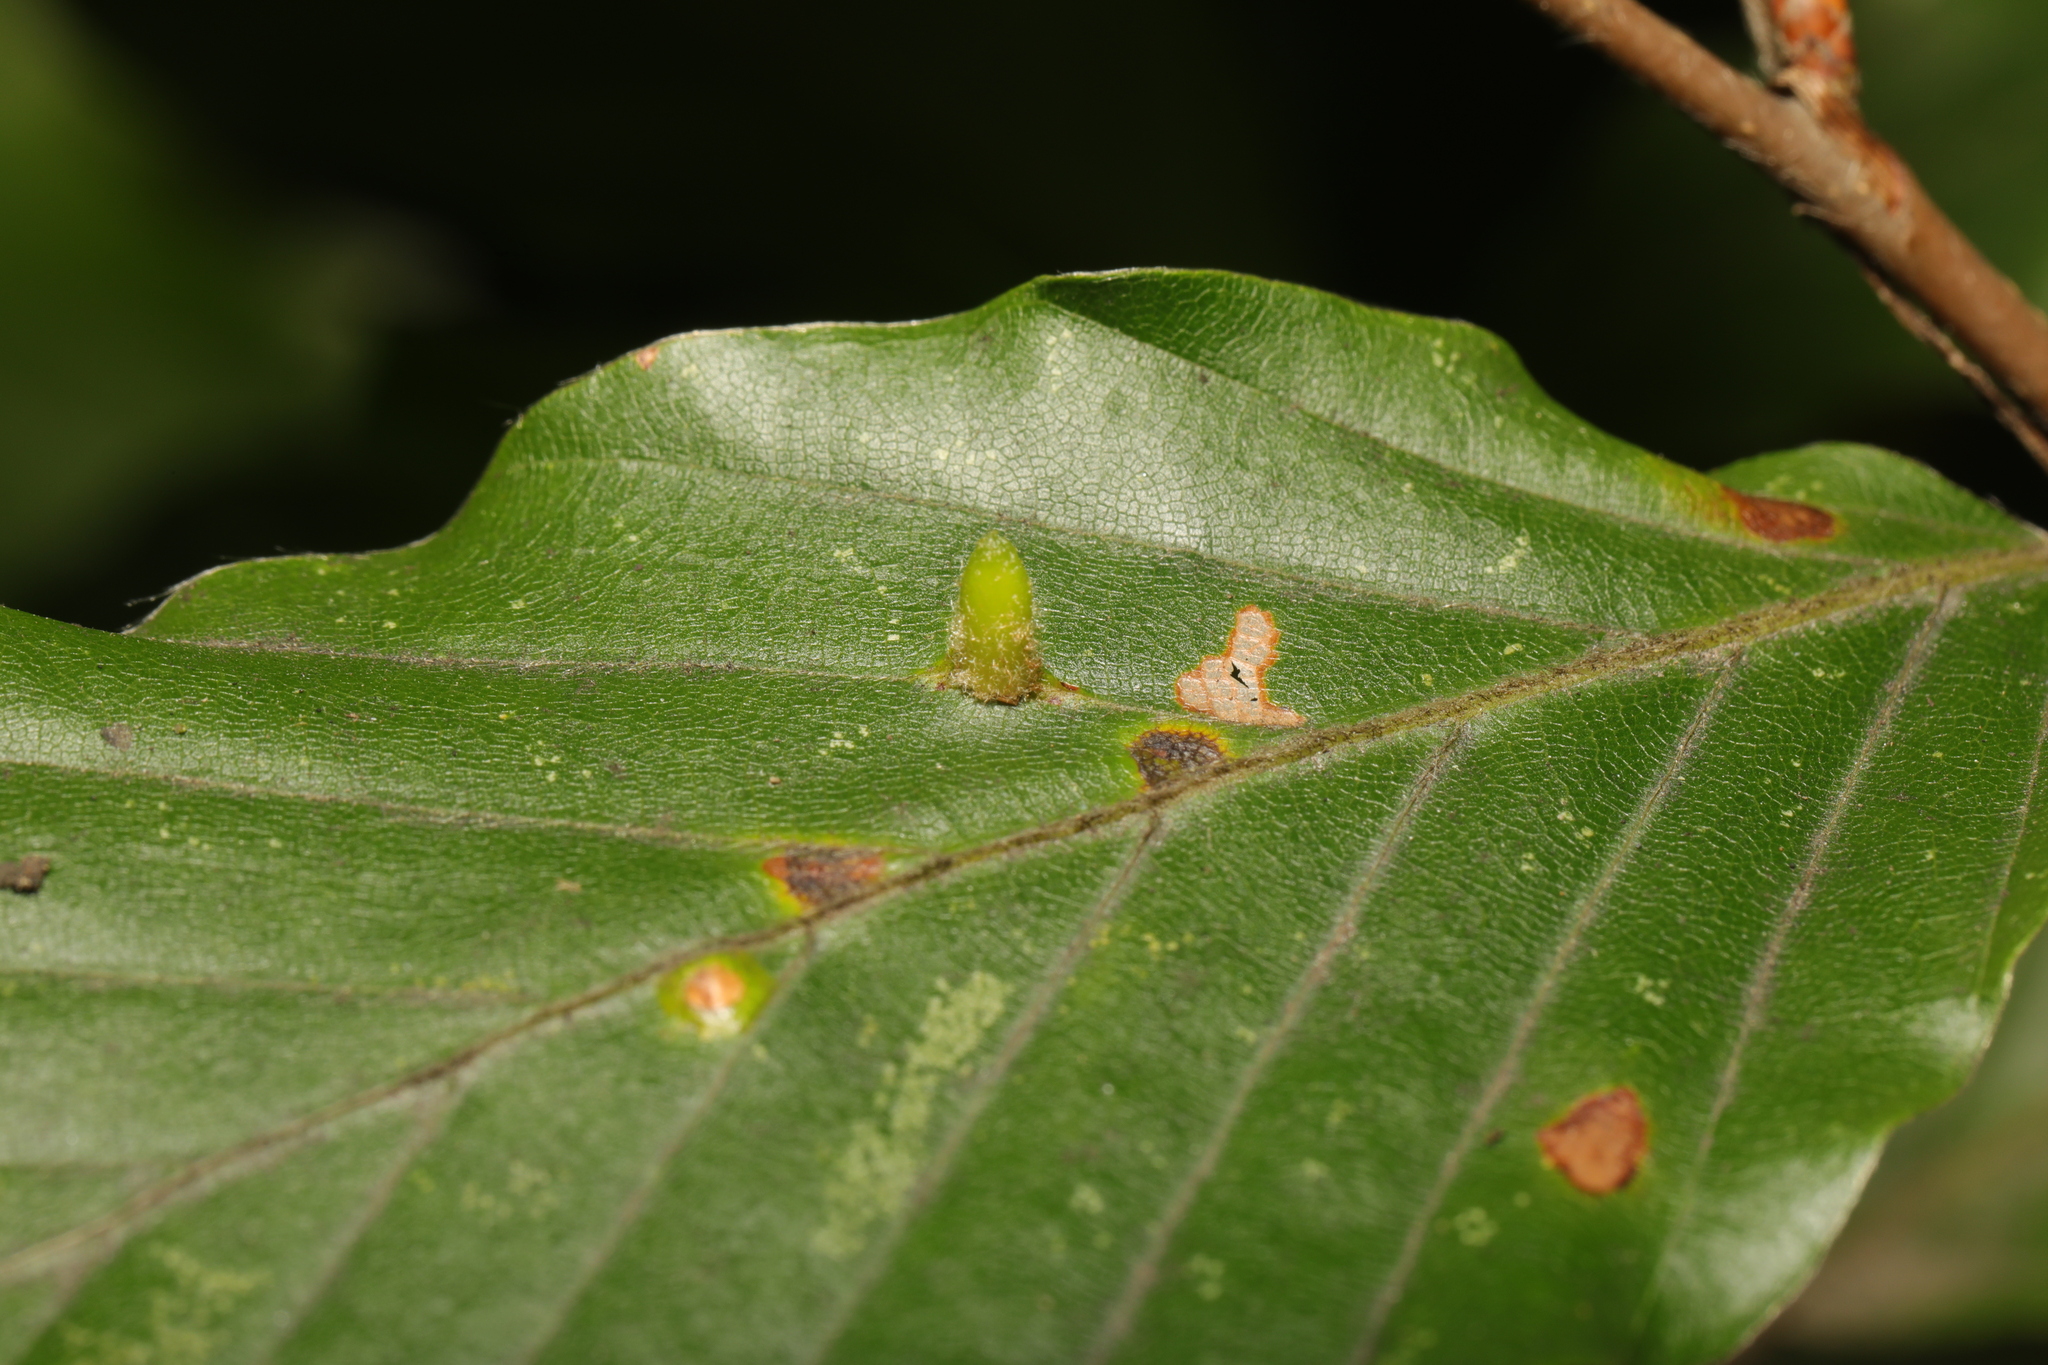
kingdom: Animalia
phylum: Arthropoda
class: Insecta
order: Diptera
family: Cecidomyiidae
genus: Hartigiola
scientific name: Hartigiola annulipes
